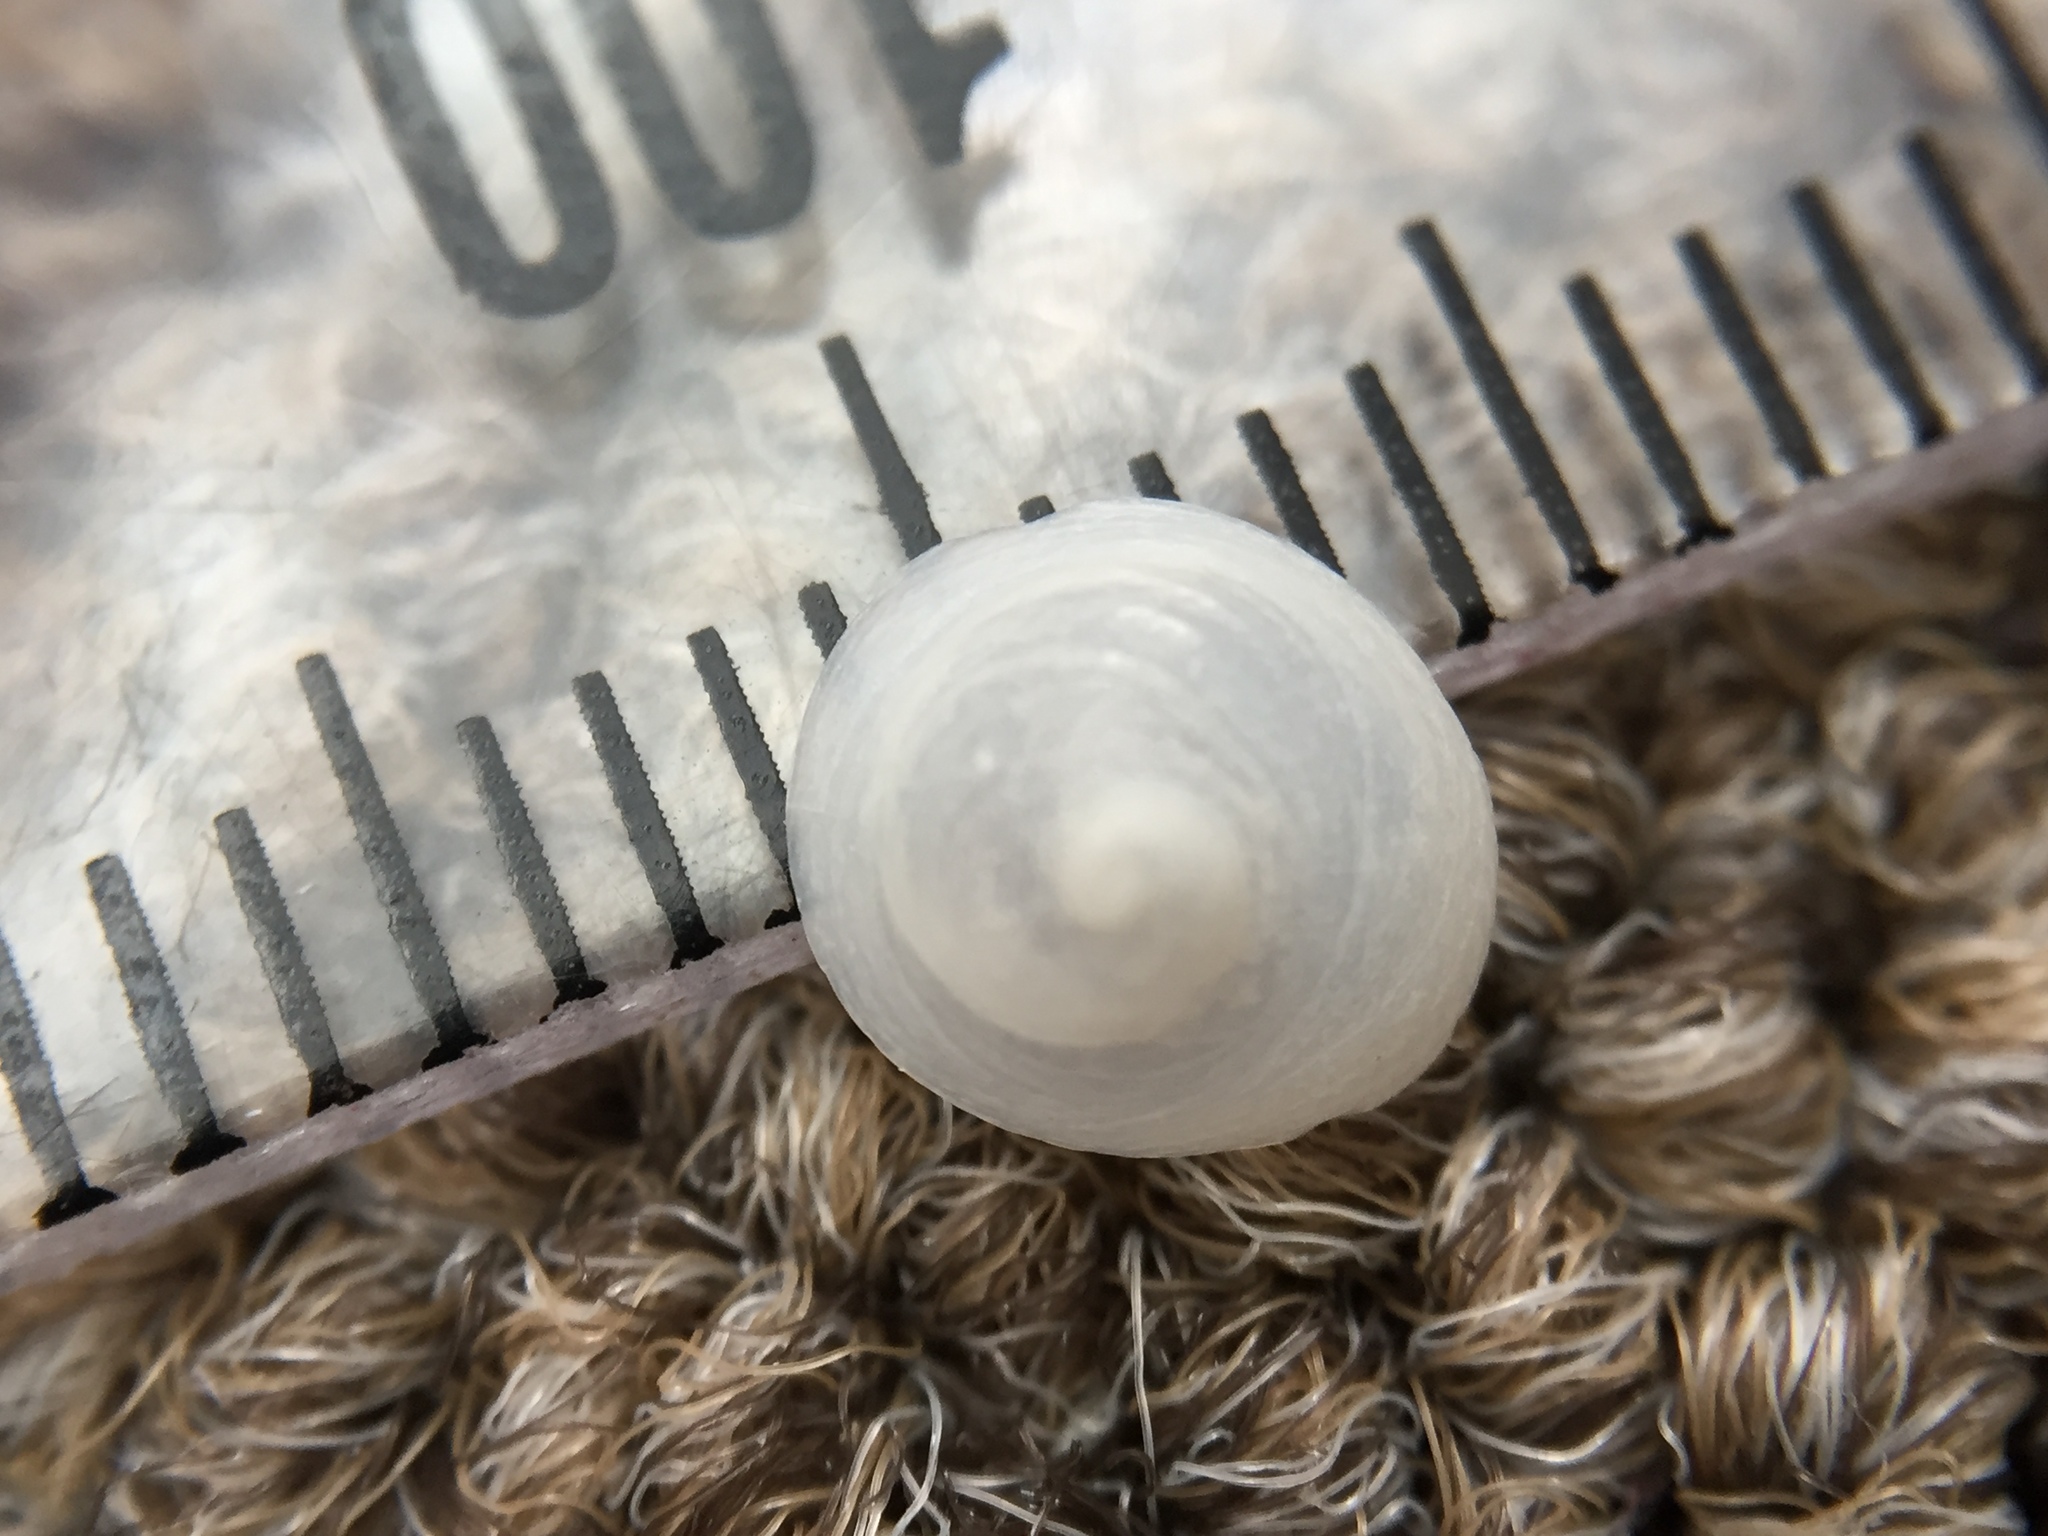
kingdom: Animalia
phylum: Mollusca
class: Gastropoda
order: Littorinimorpha
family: Calyptraeidae
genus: Sigapatella
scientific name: Sigapatella tenuis
